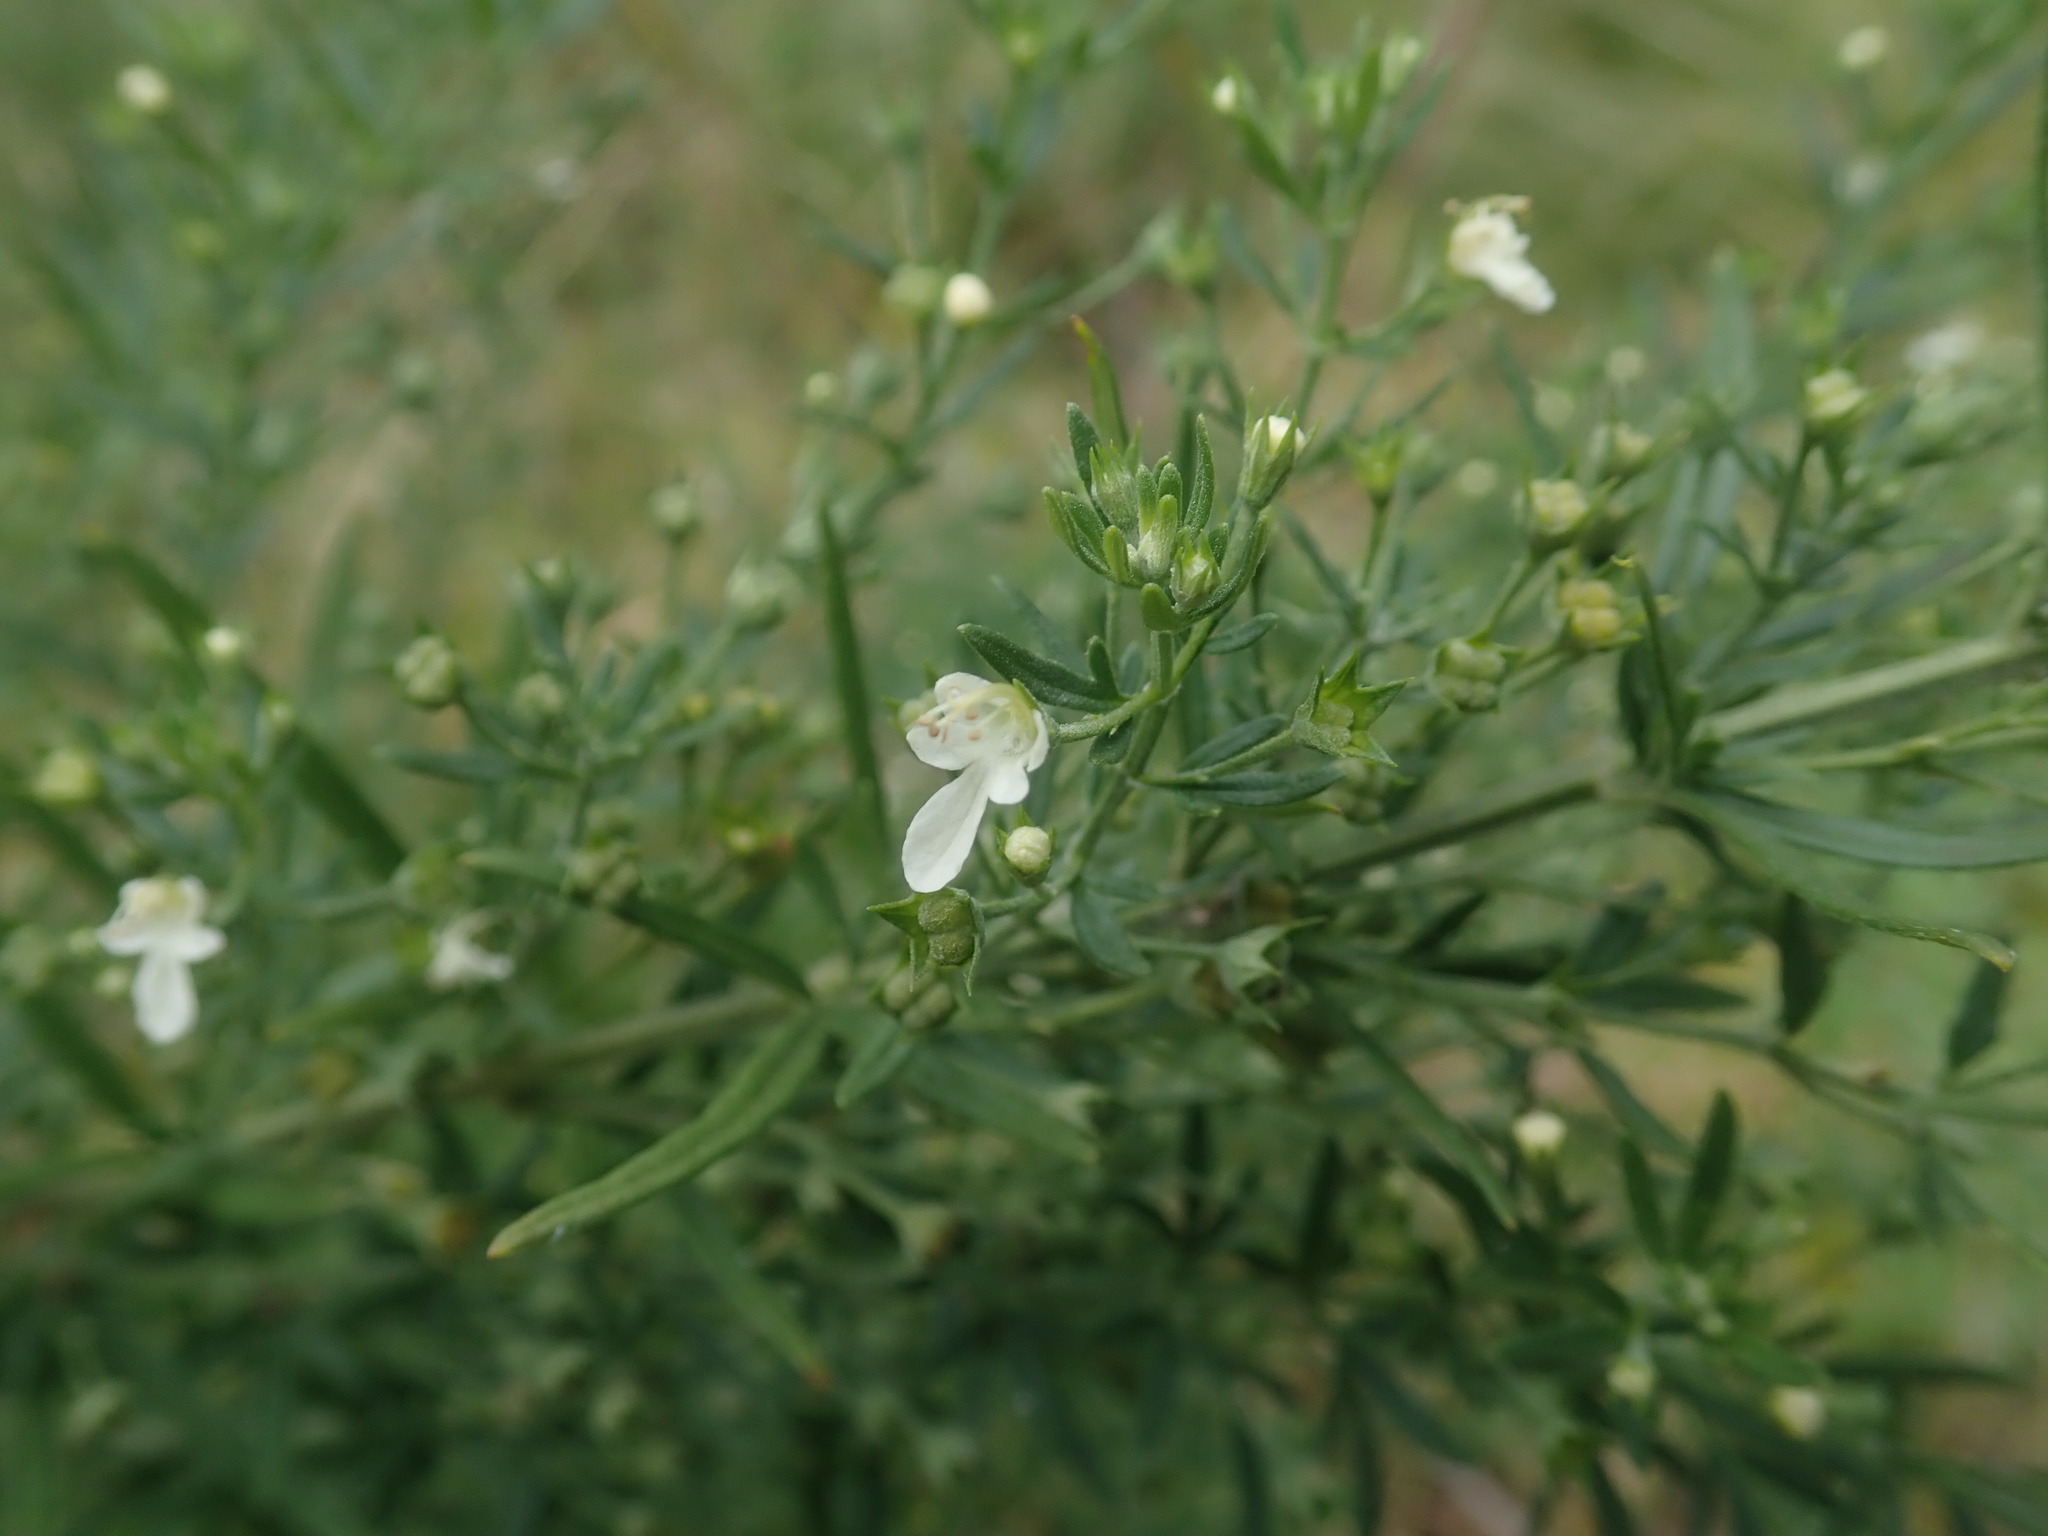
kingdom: Plantae
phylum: Tracheophyta
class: Magnoliopsida
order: Lamiales
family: Lamiaceae
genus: Teucrium
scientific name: Teucrium trifidum
